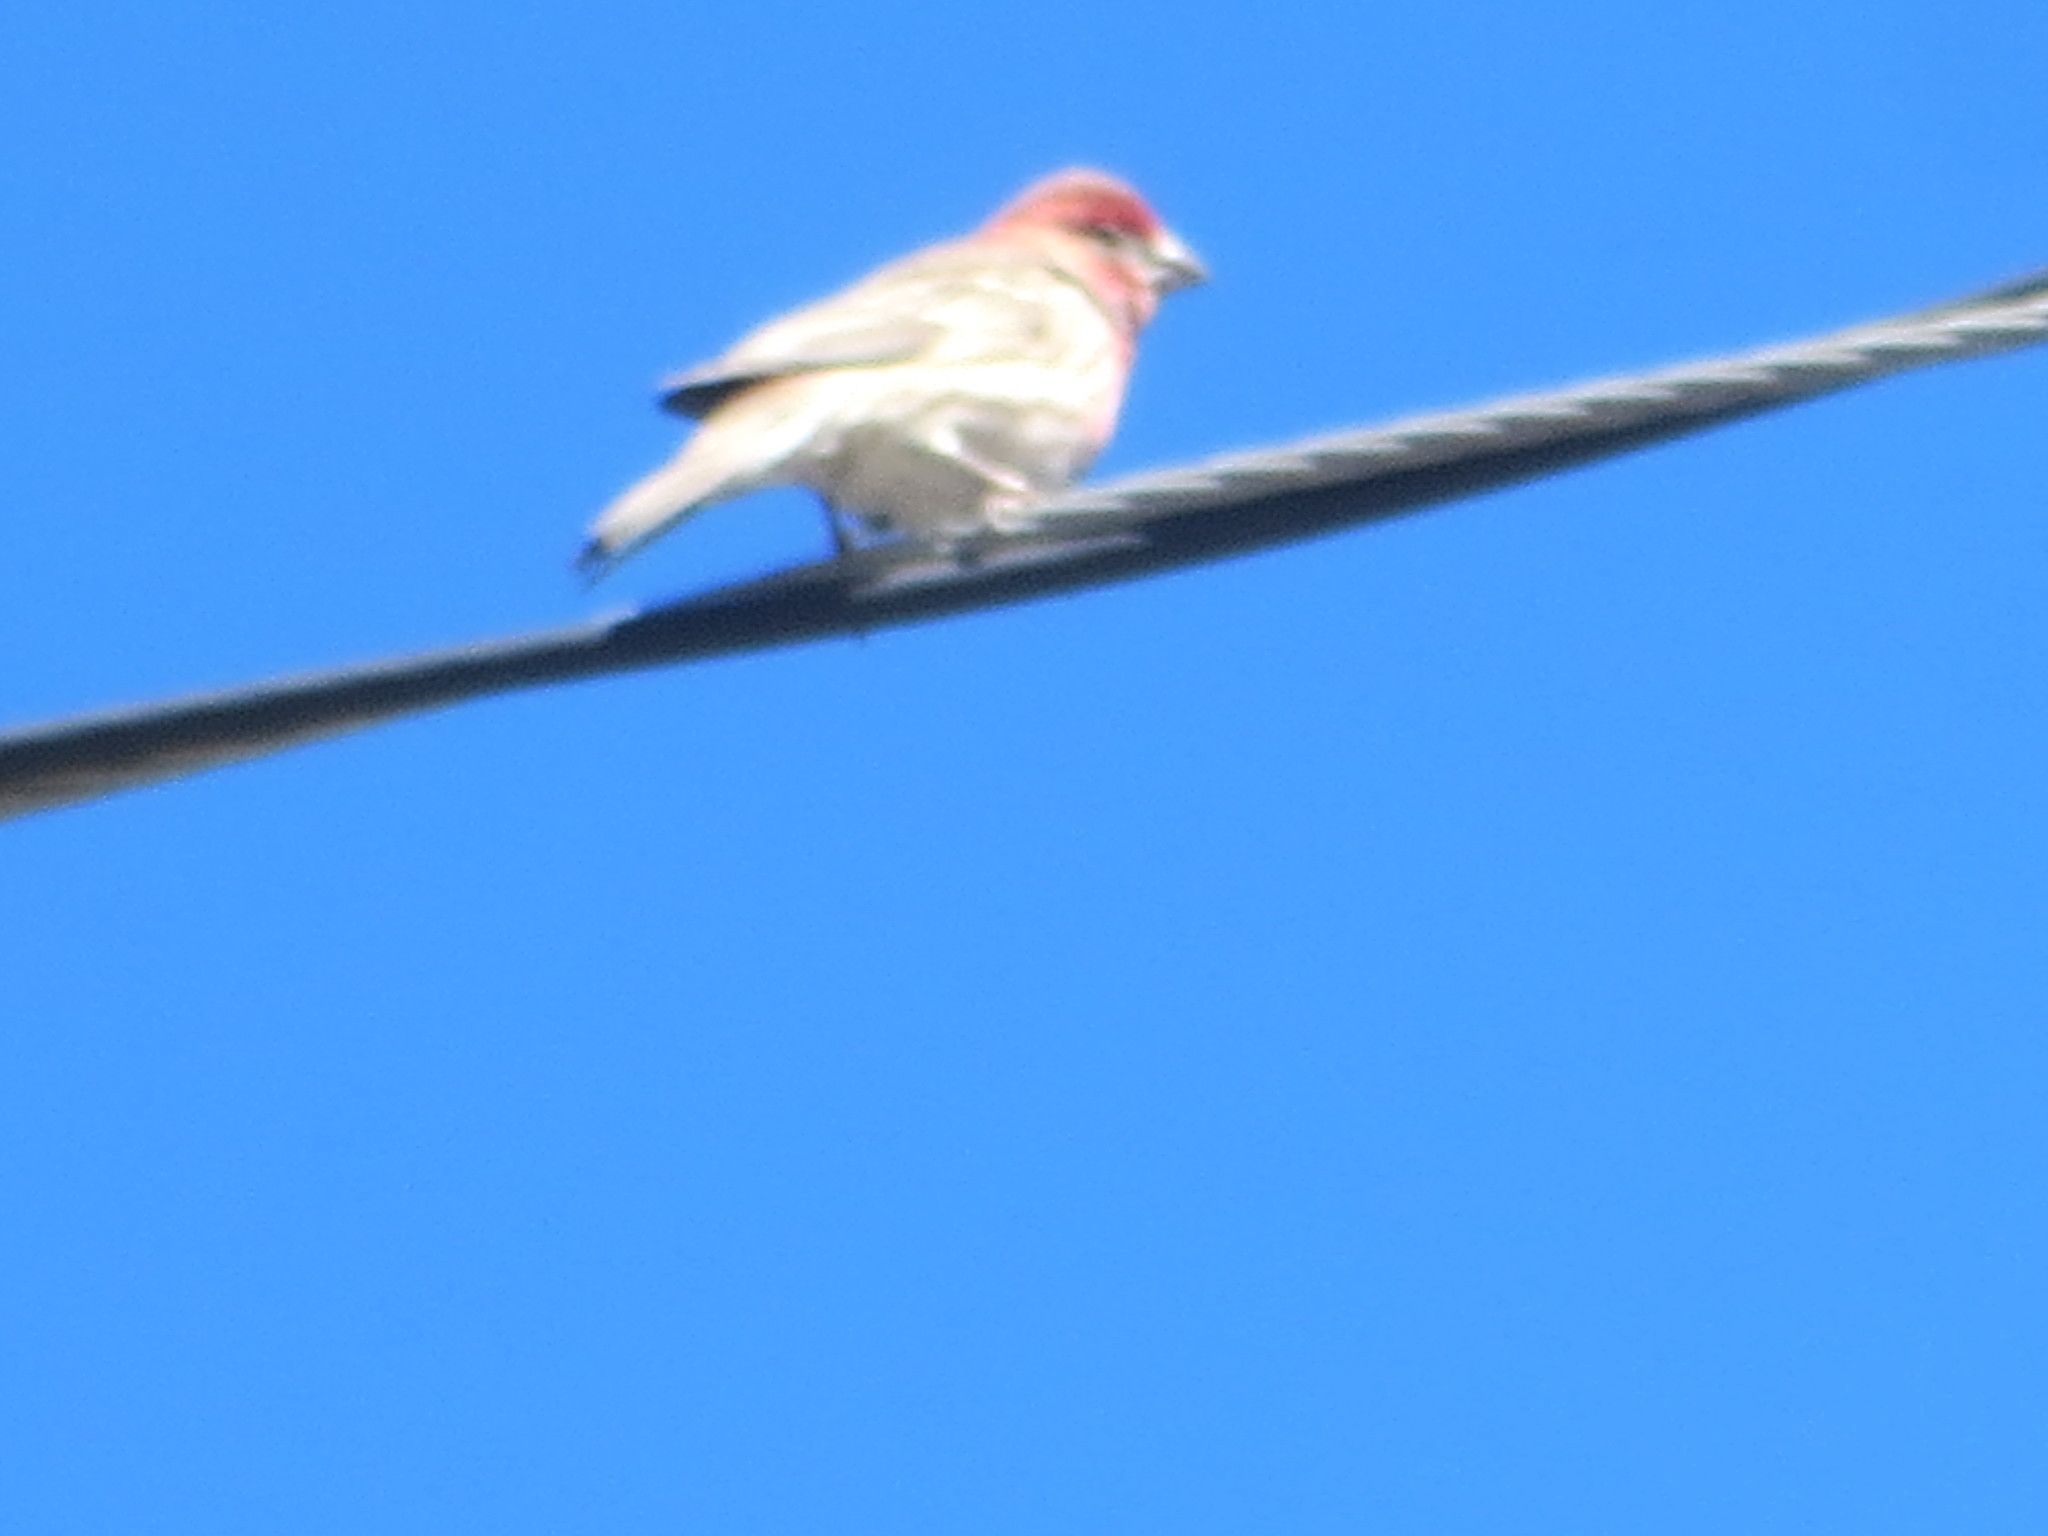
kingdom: Animalia
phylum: Chordata
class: Aves
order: Passeriformes
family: Fringillidae
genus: Haemorhous
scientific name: Haemorhous mexicanus
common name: House finch
